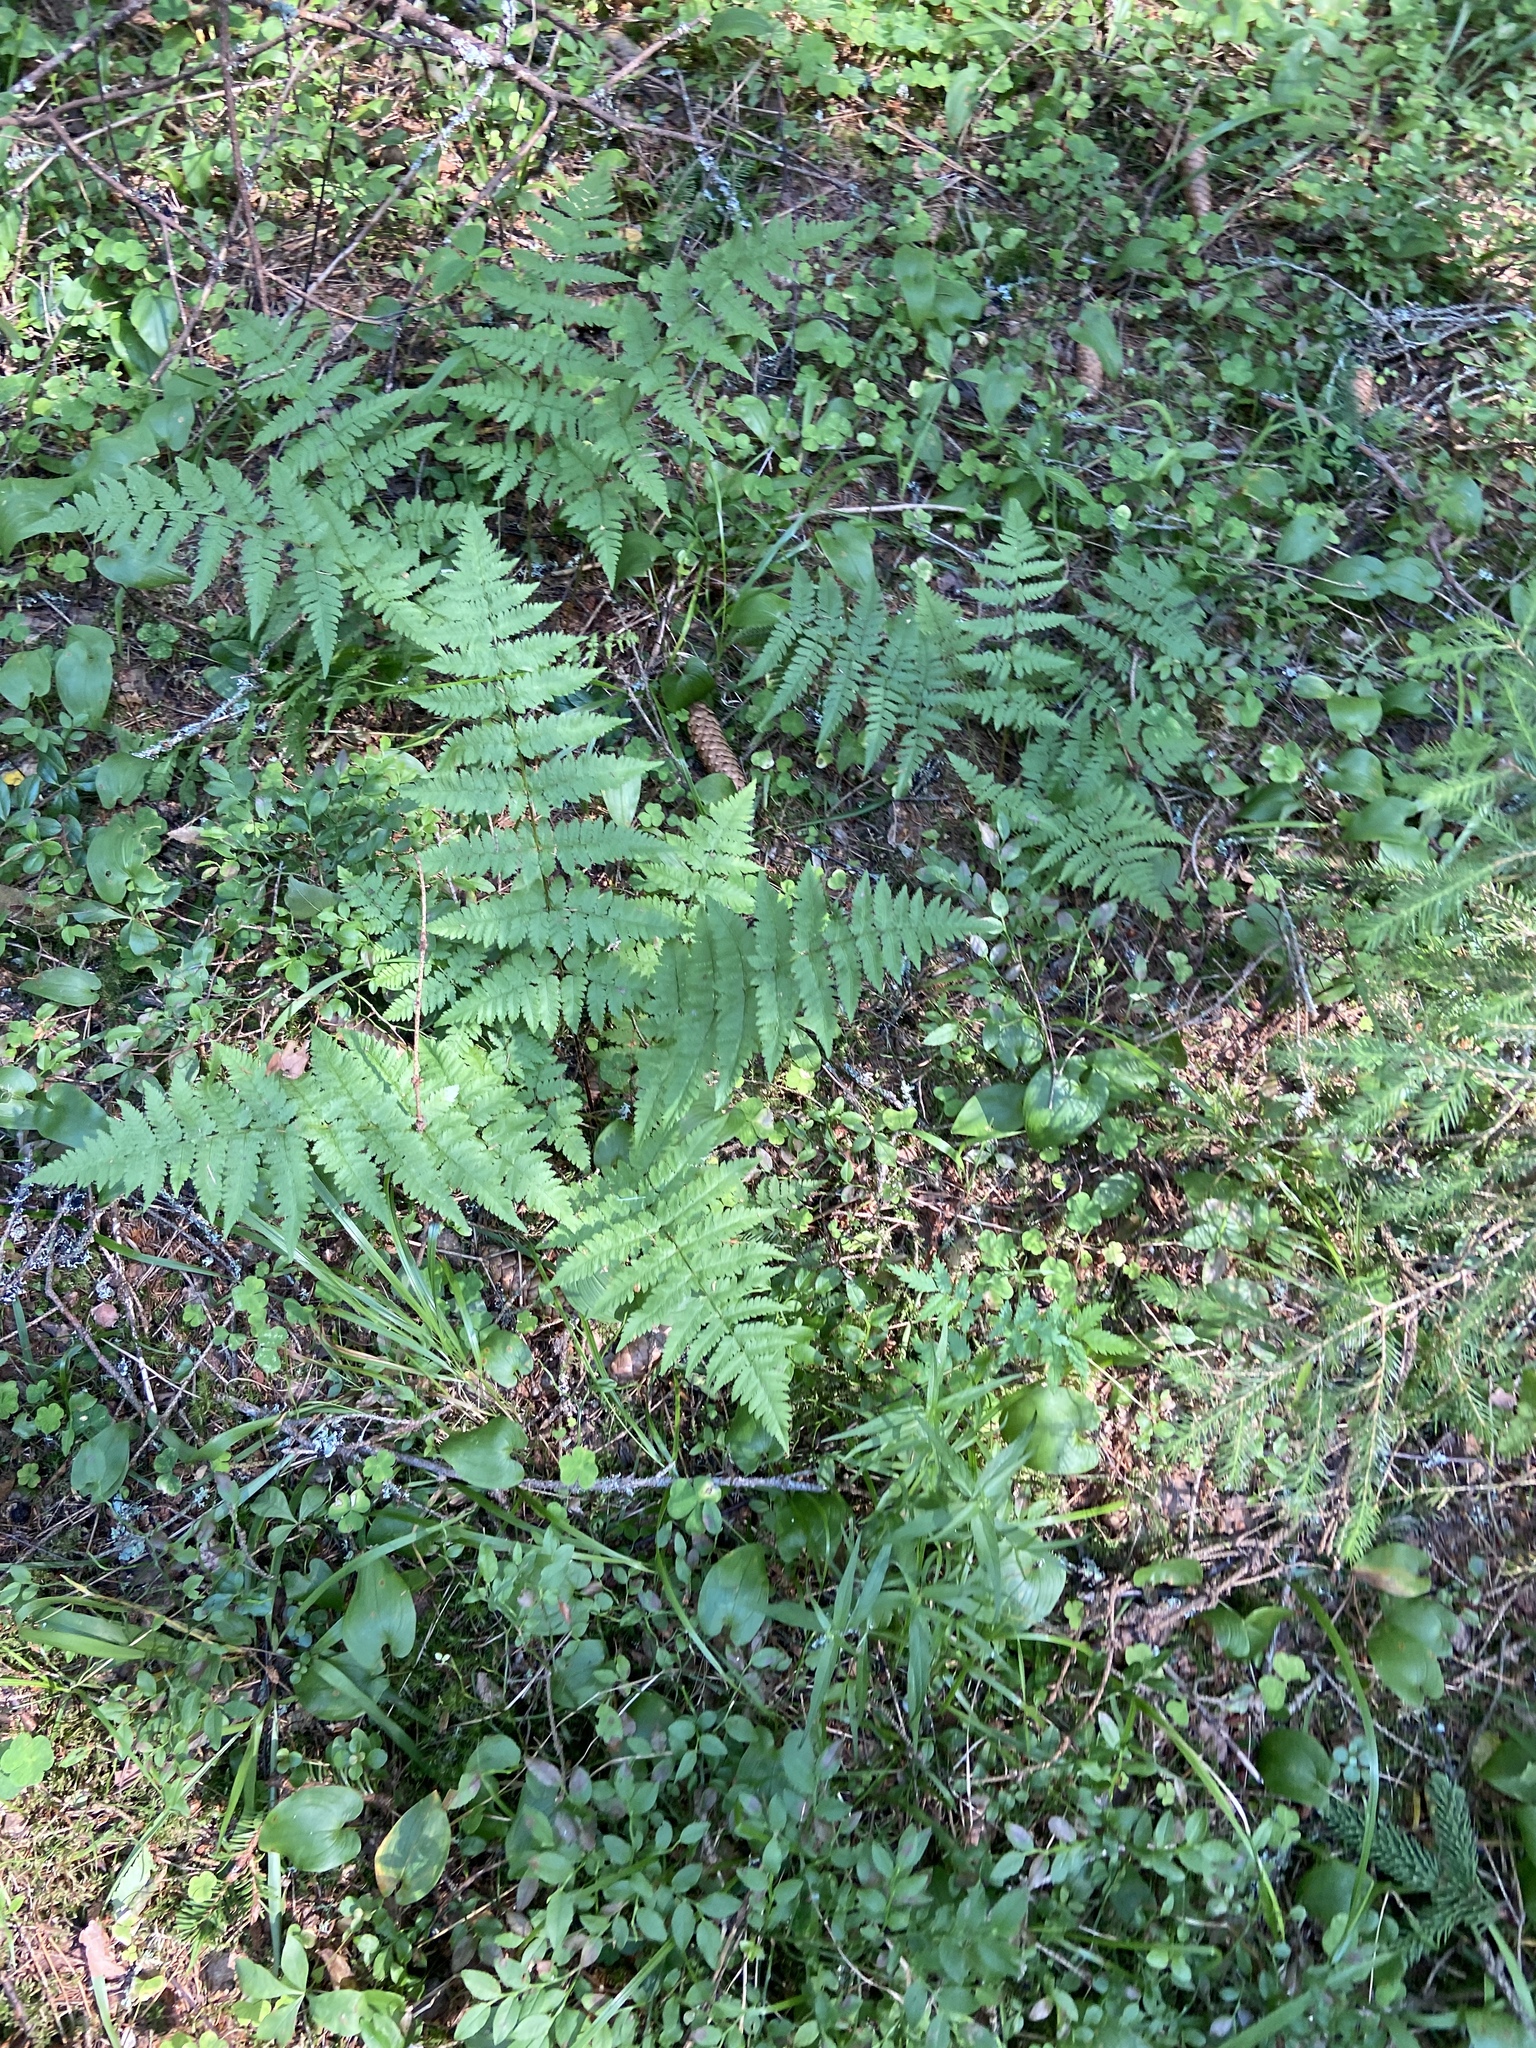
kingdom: Plantae
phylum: Tracheophyta
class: Polypodiopsida
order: Polypodiales
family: Dryopteridaceae
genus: Dryopteris
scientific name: Dryopteris carthusiana
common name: Narrow buckler-fern
